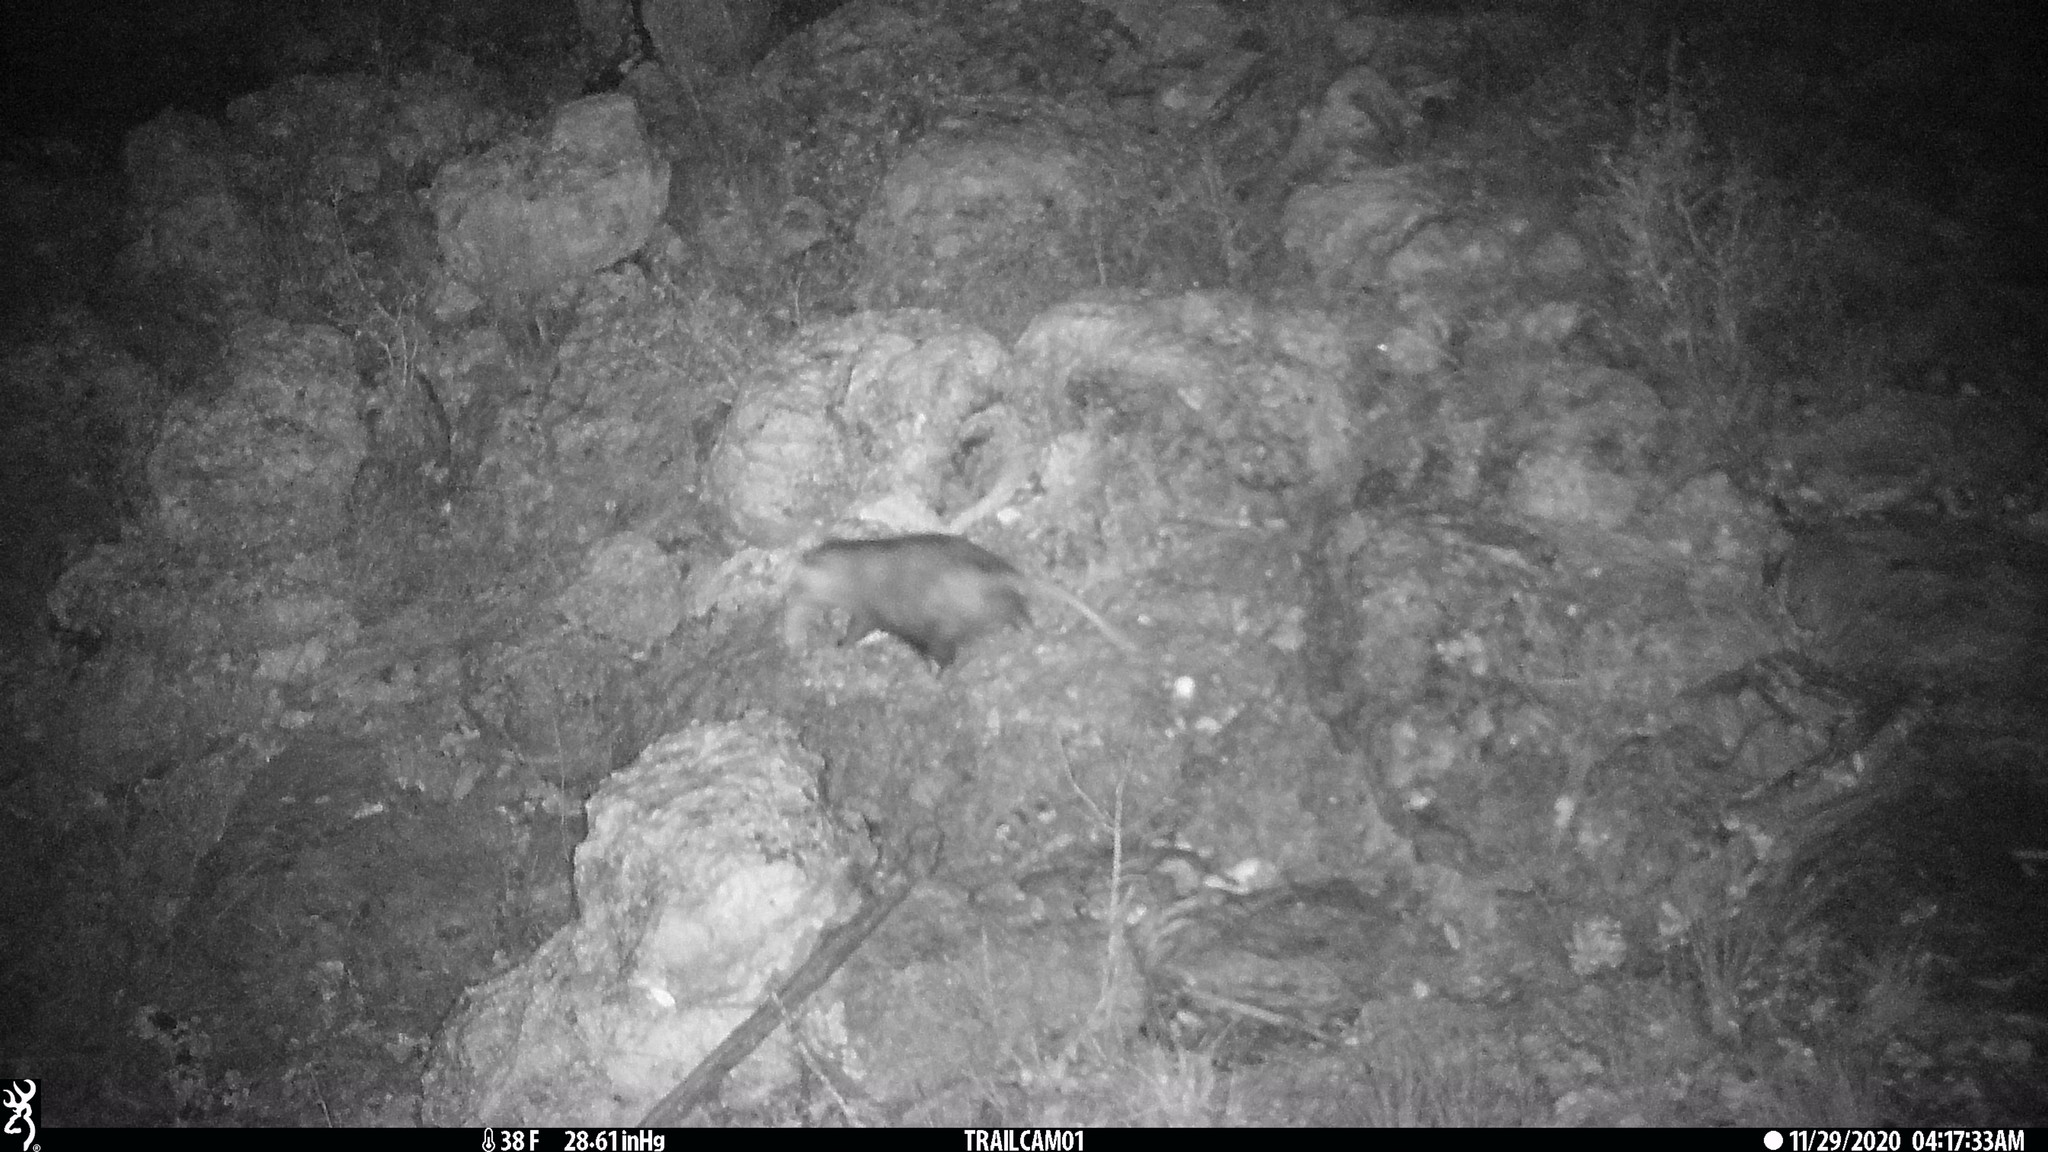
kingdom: Animalia
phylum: Chordata
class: Mammalia
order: Didelphimorphia
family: Didelphidae
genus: Didelphis
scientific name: Didelphis virginiana
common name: Virginia opossum
